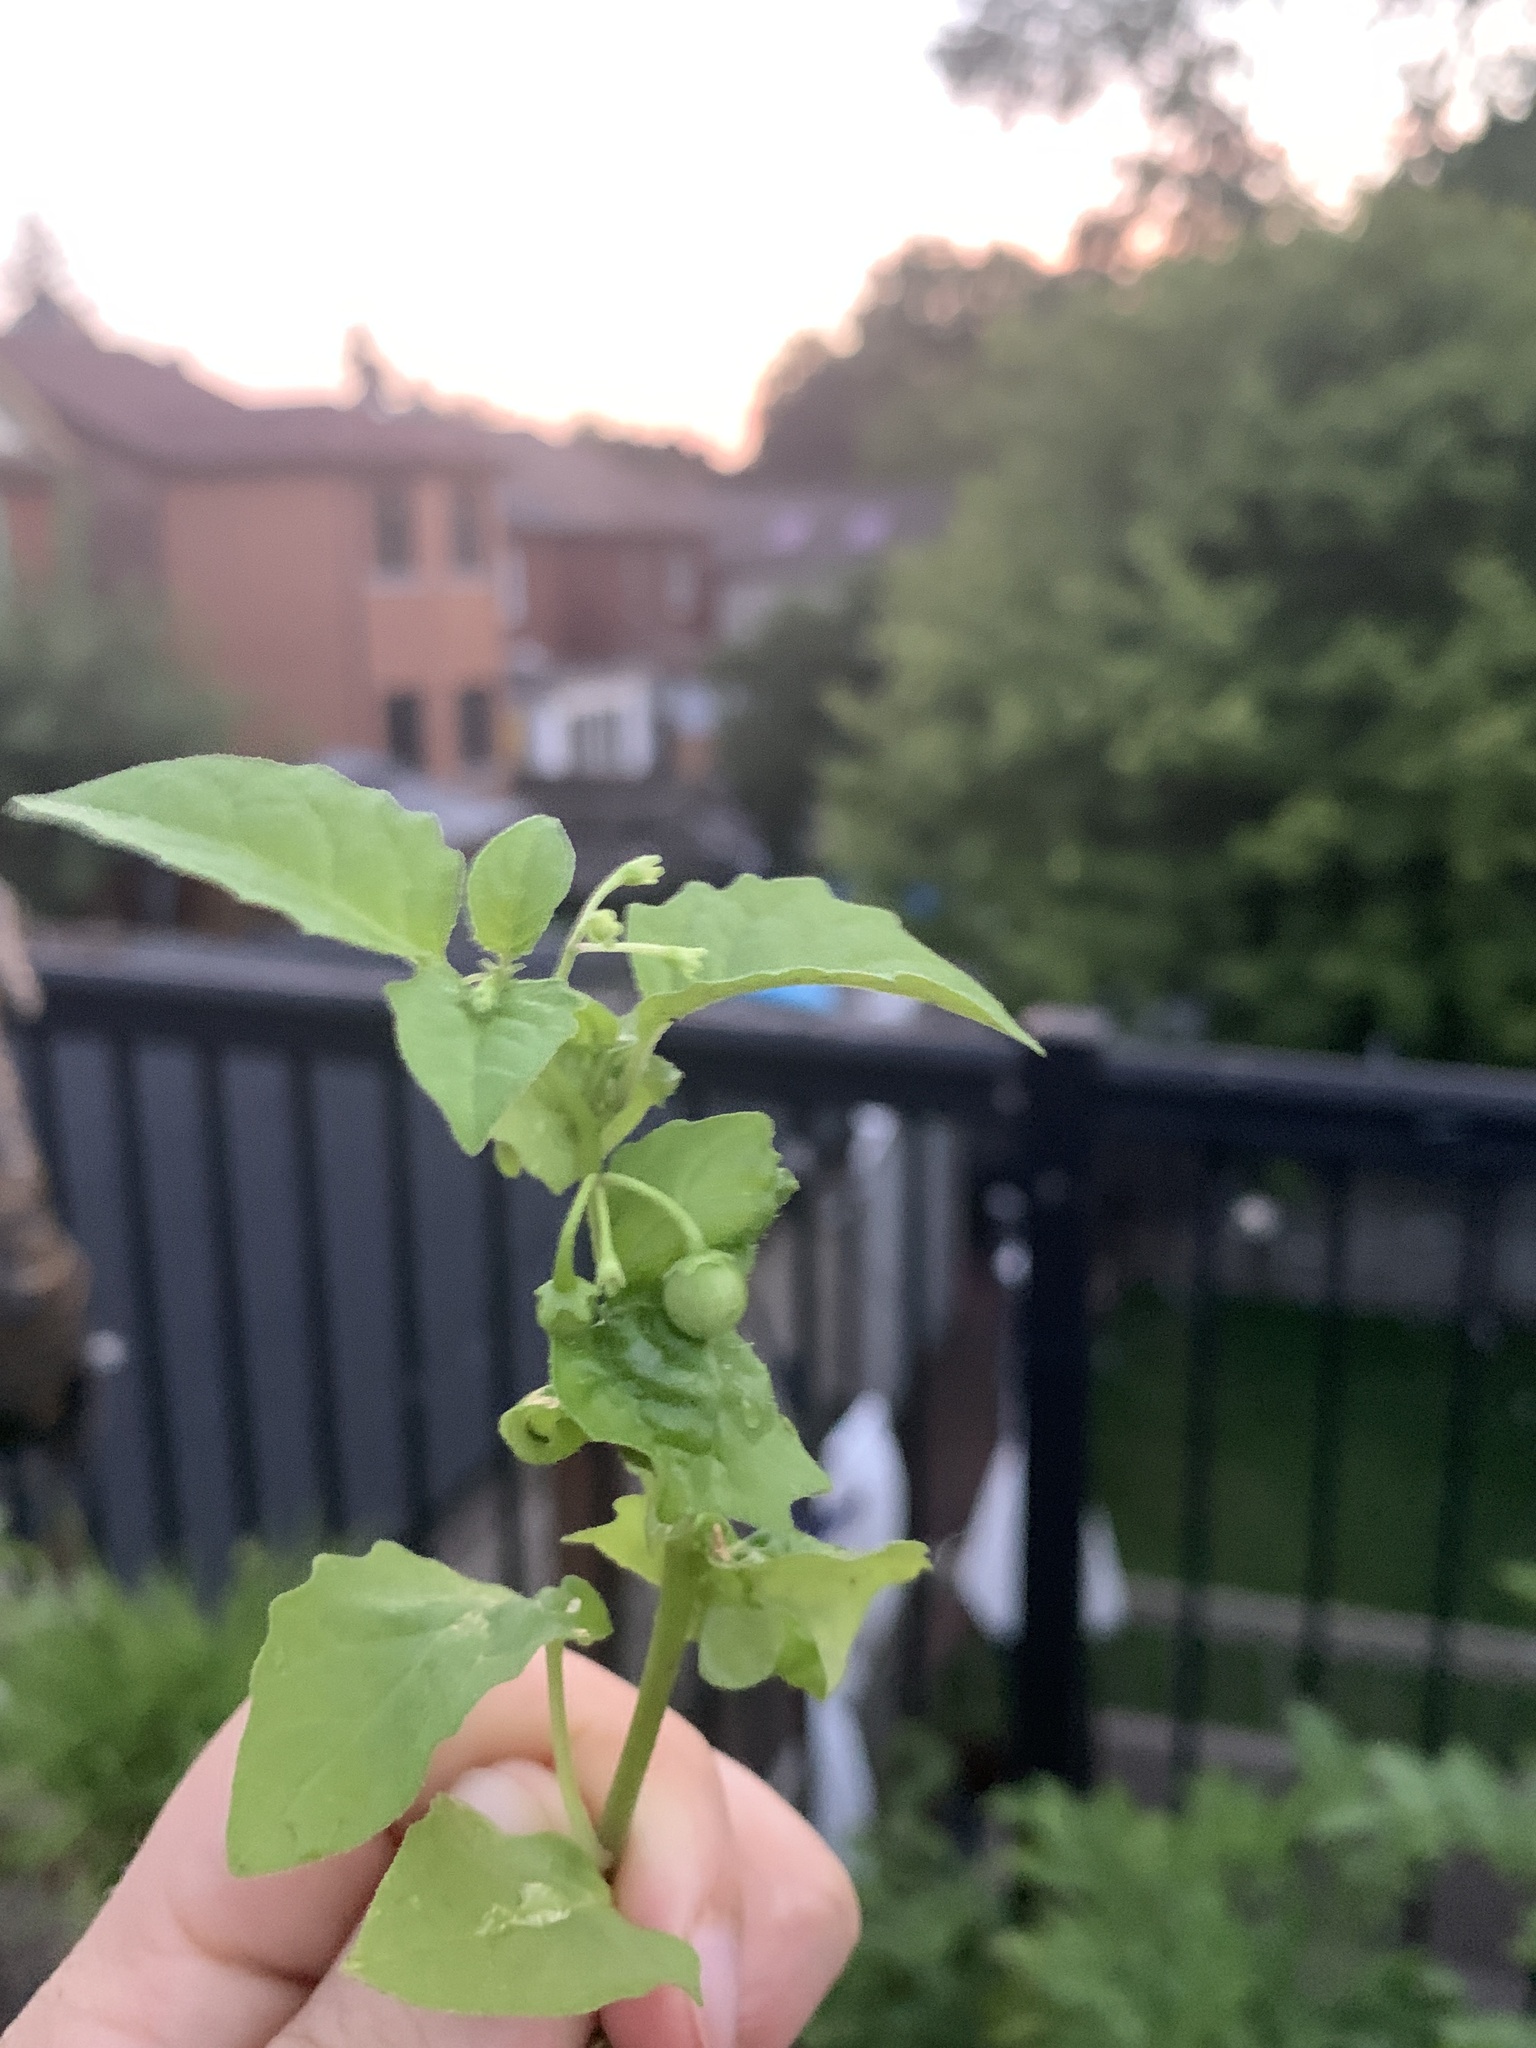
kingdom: Plantae
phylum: Tracheophyta
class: Magnoliopsida
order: Solanales
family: Solanaceae
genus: Solanum
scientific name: Solanum emulans
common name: Eastern black nightshade
